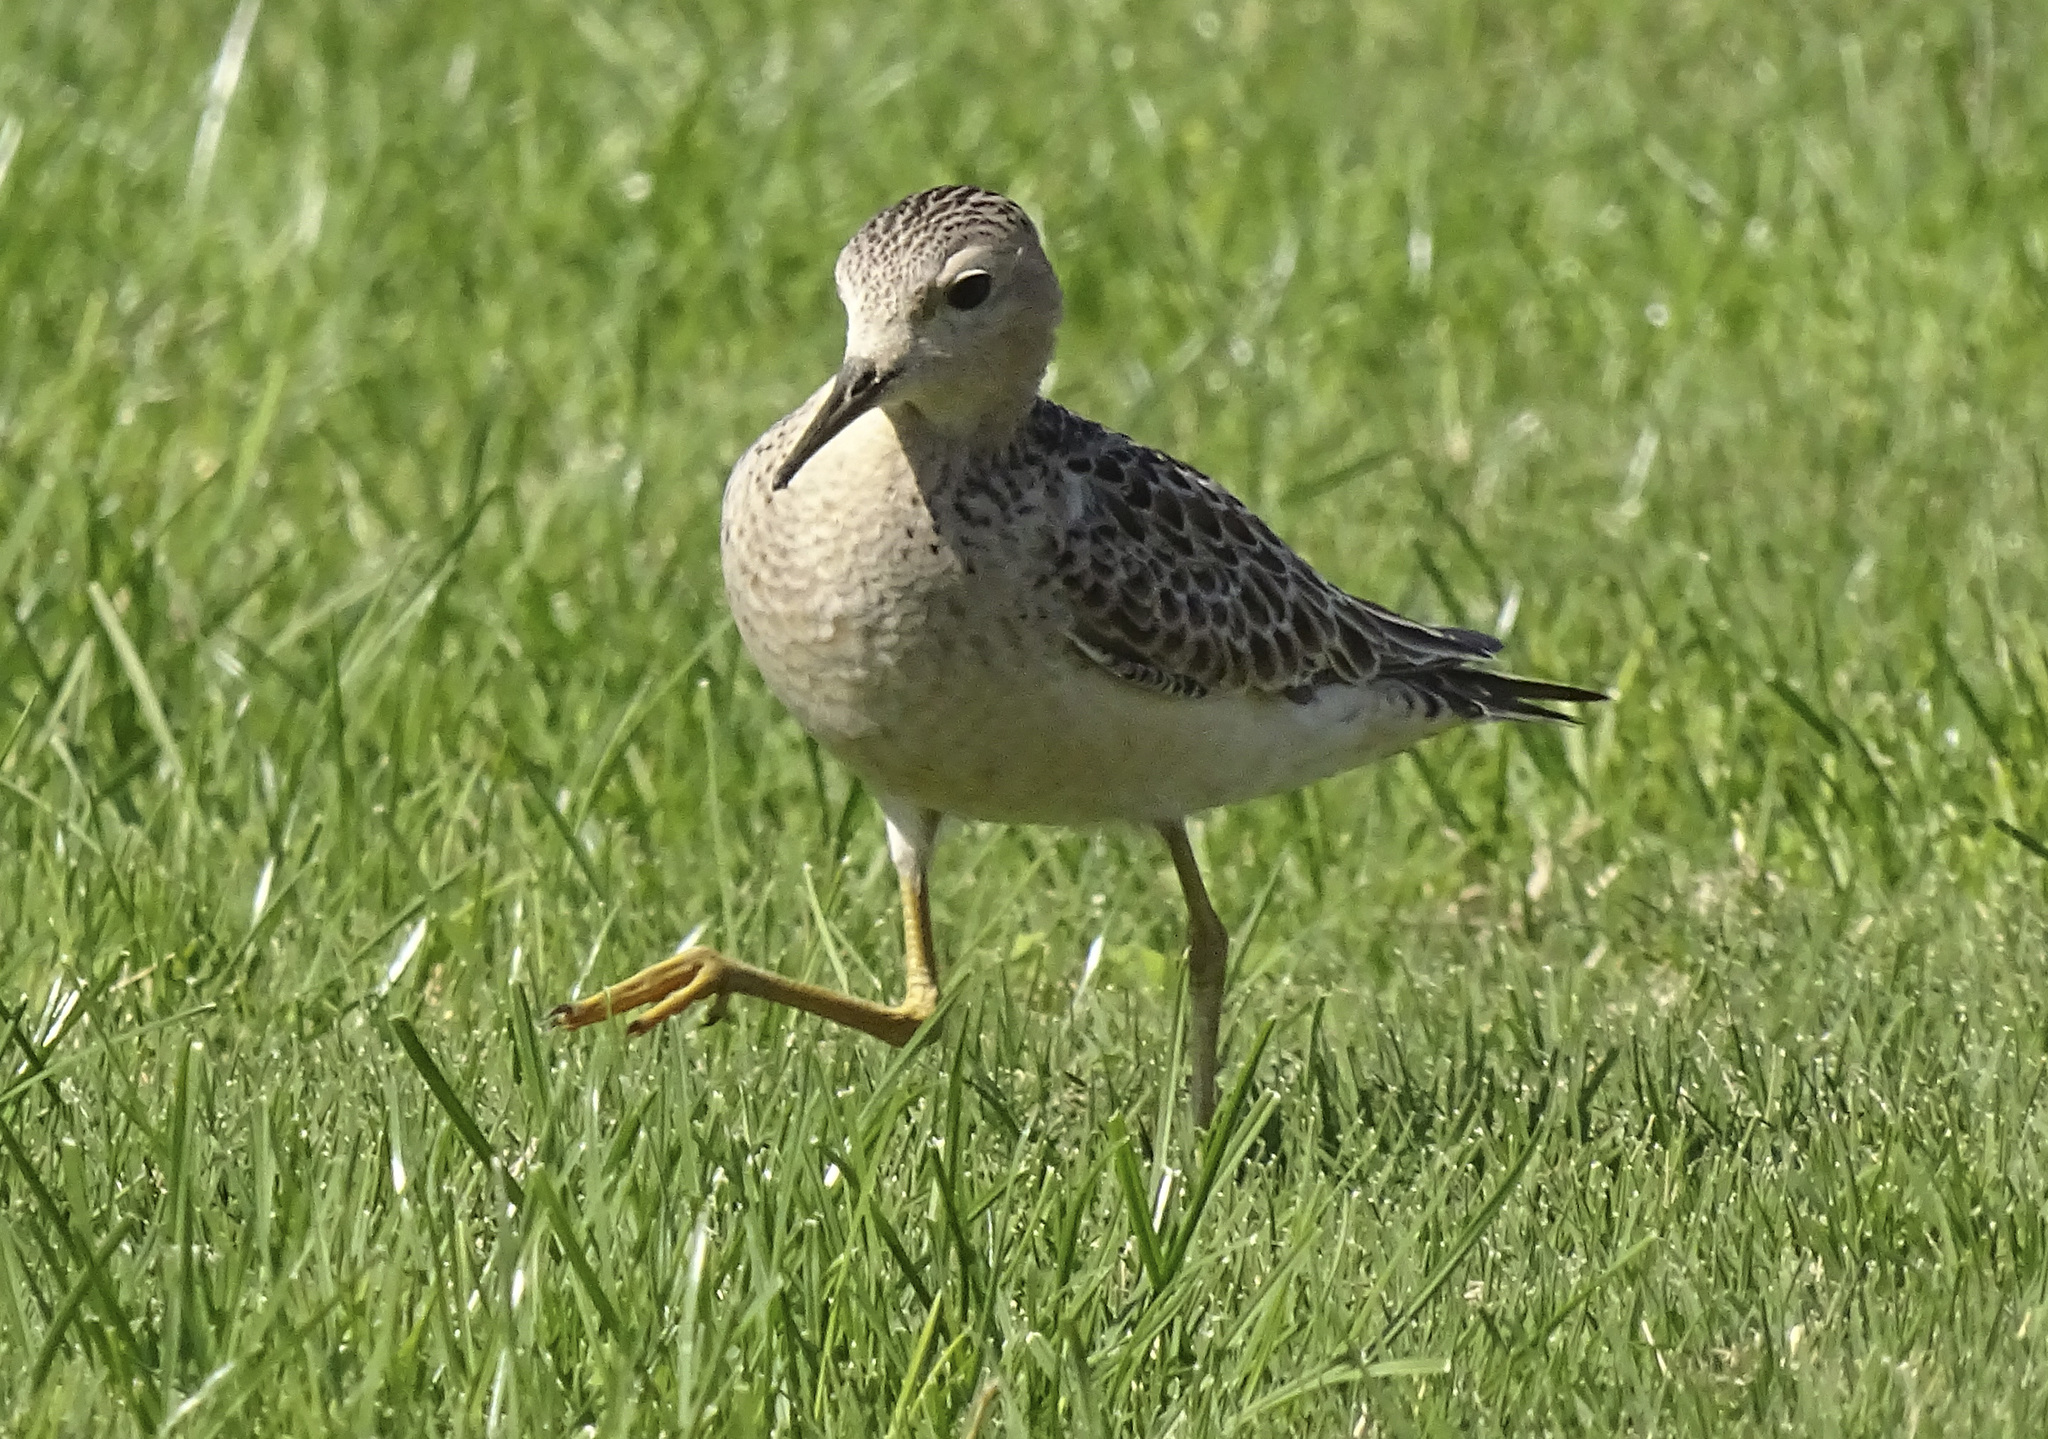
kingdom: Animalia
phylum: Chordata
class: Aves
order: Charadriiformes
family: Scolopacidae
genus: Calidris
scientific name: Calidris subruficollis
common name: Buff-breasted sandpiper
